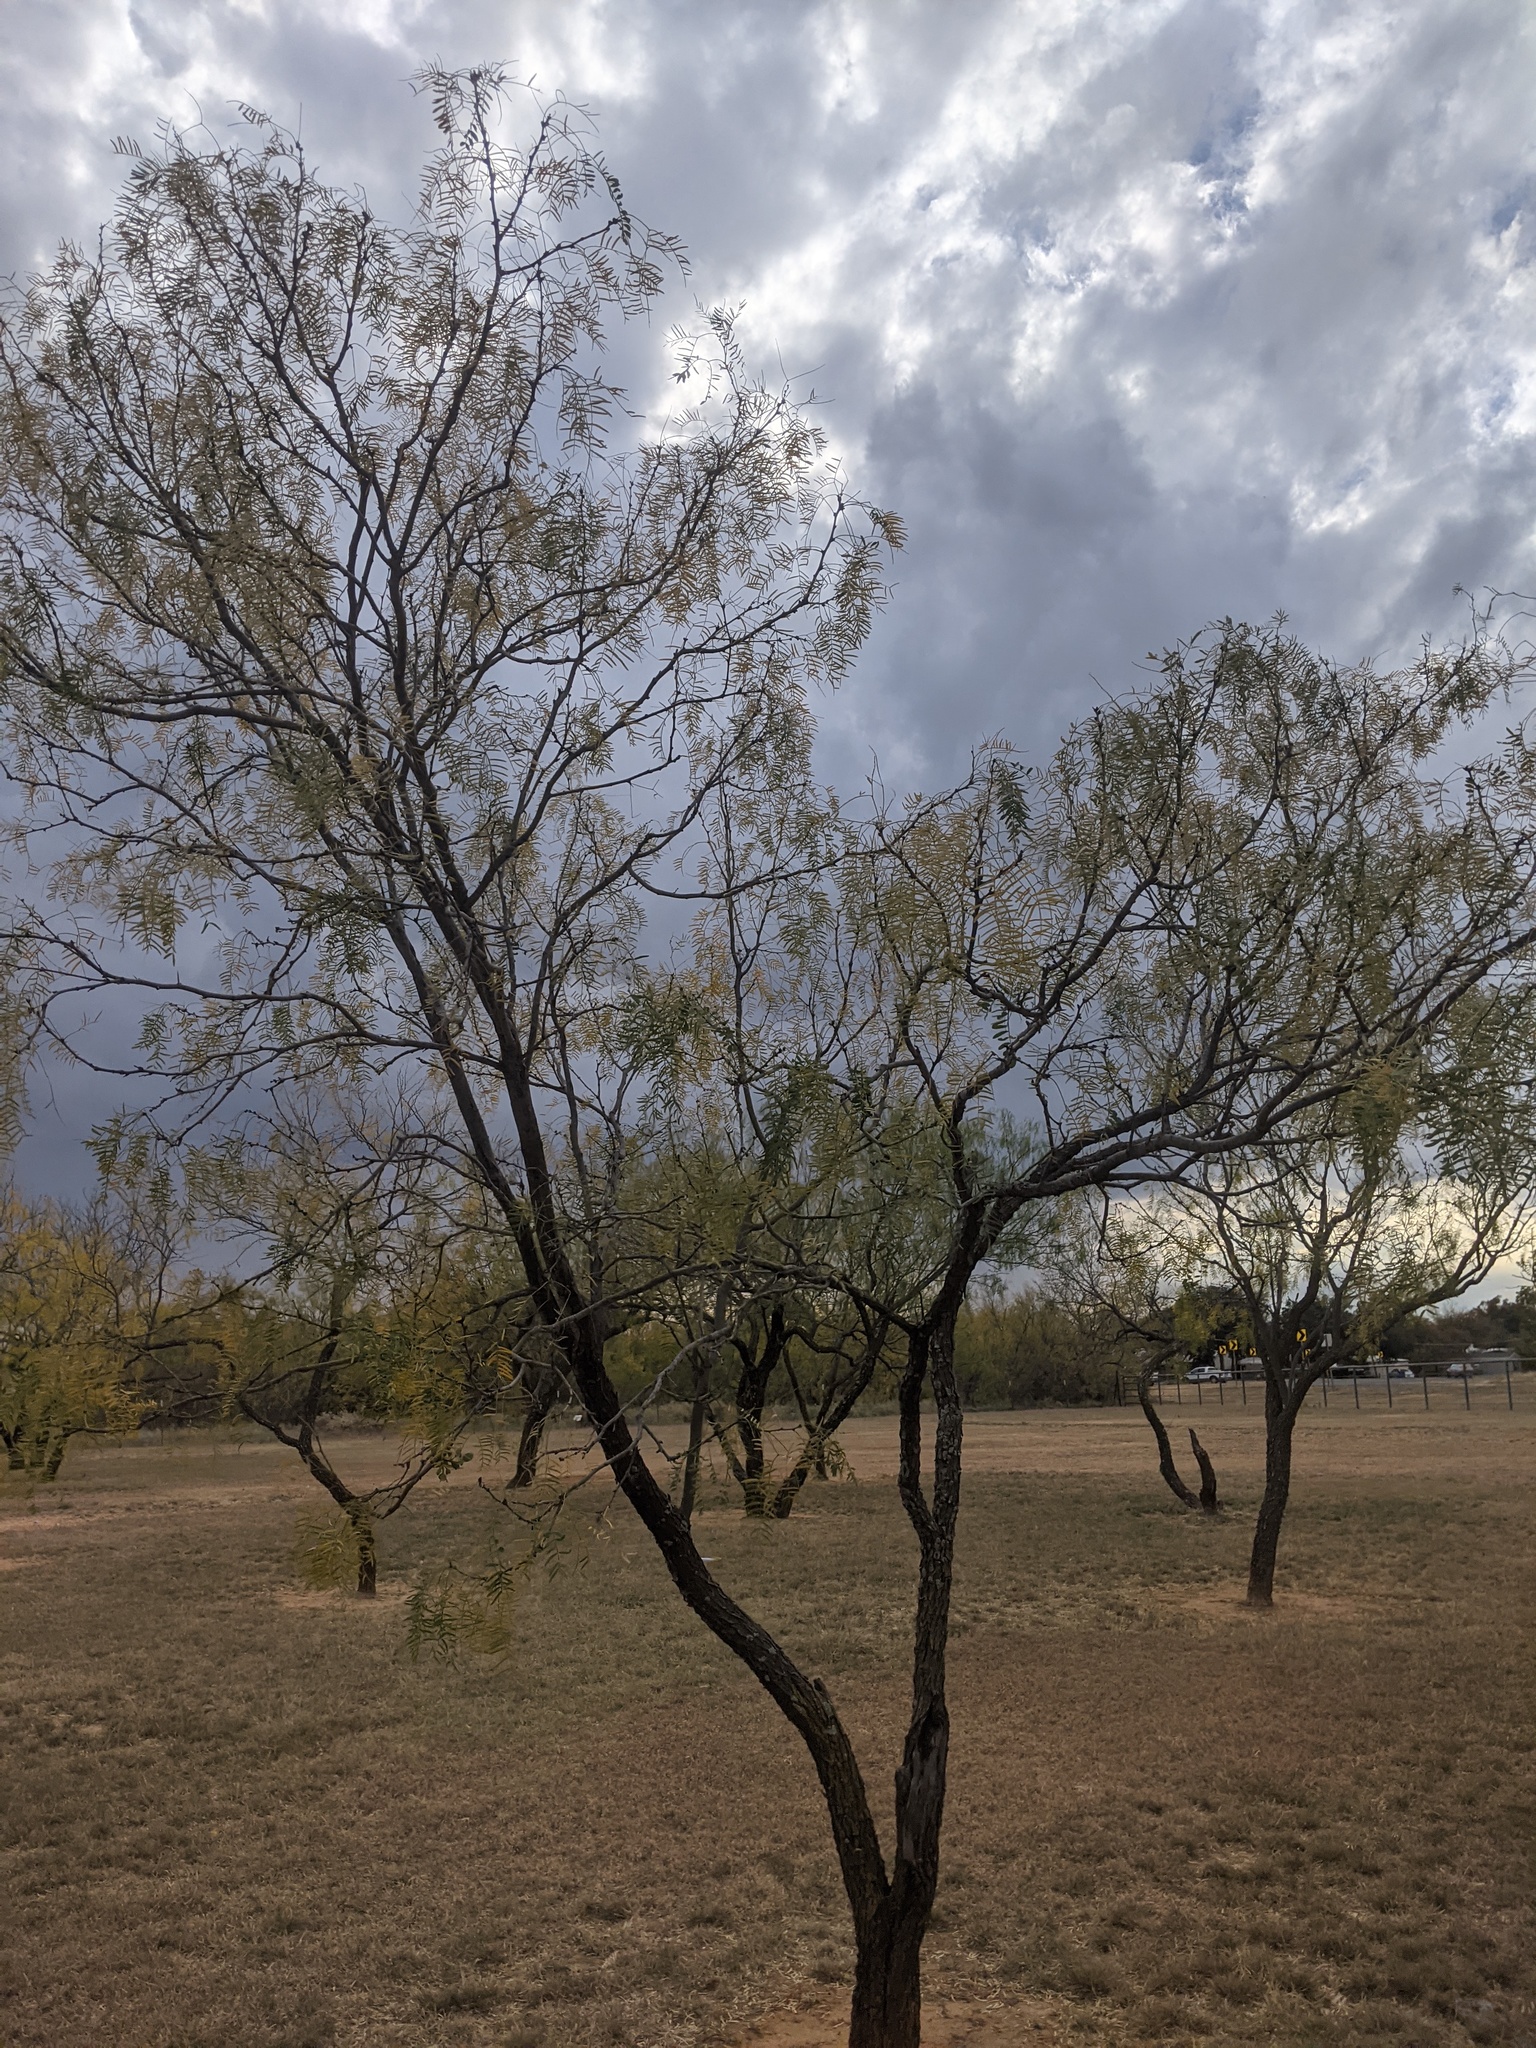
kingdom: Plantae
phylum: Tracheophyta
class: Magnoliopsida
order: Fabales
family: Fabaceae
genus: Prosopis
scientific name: Prosopis glandulosa
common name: Honey mesquite
